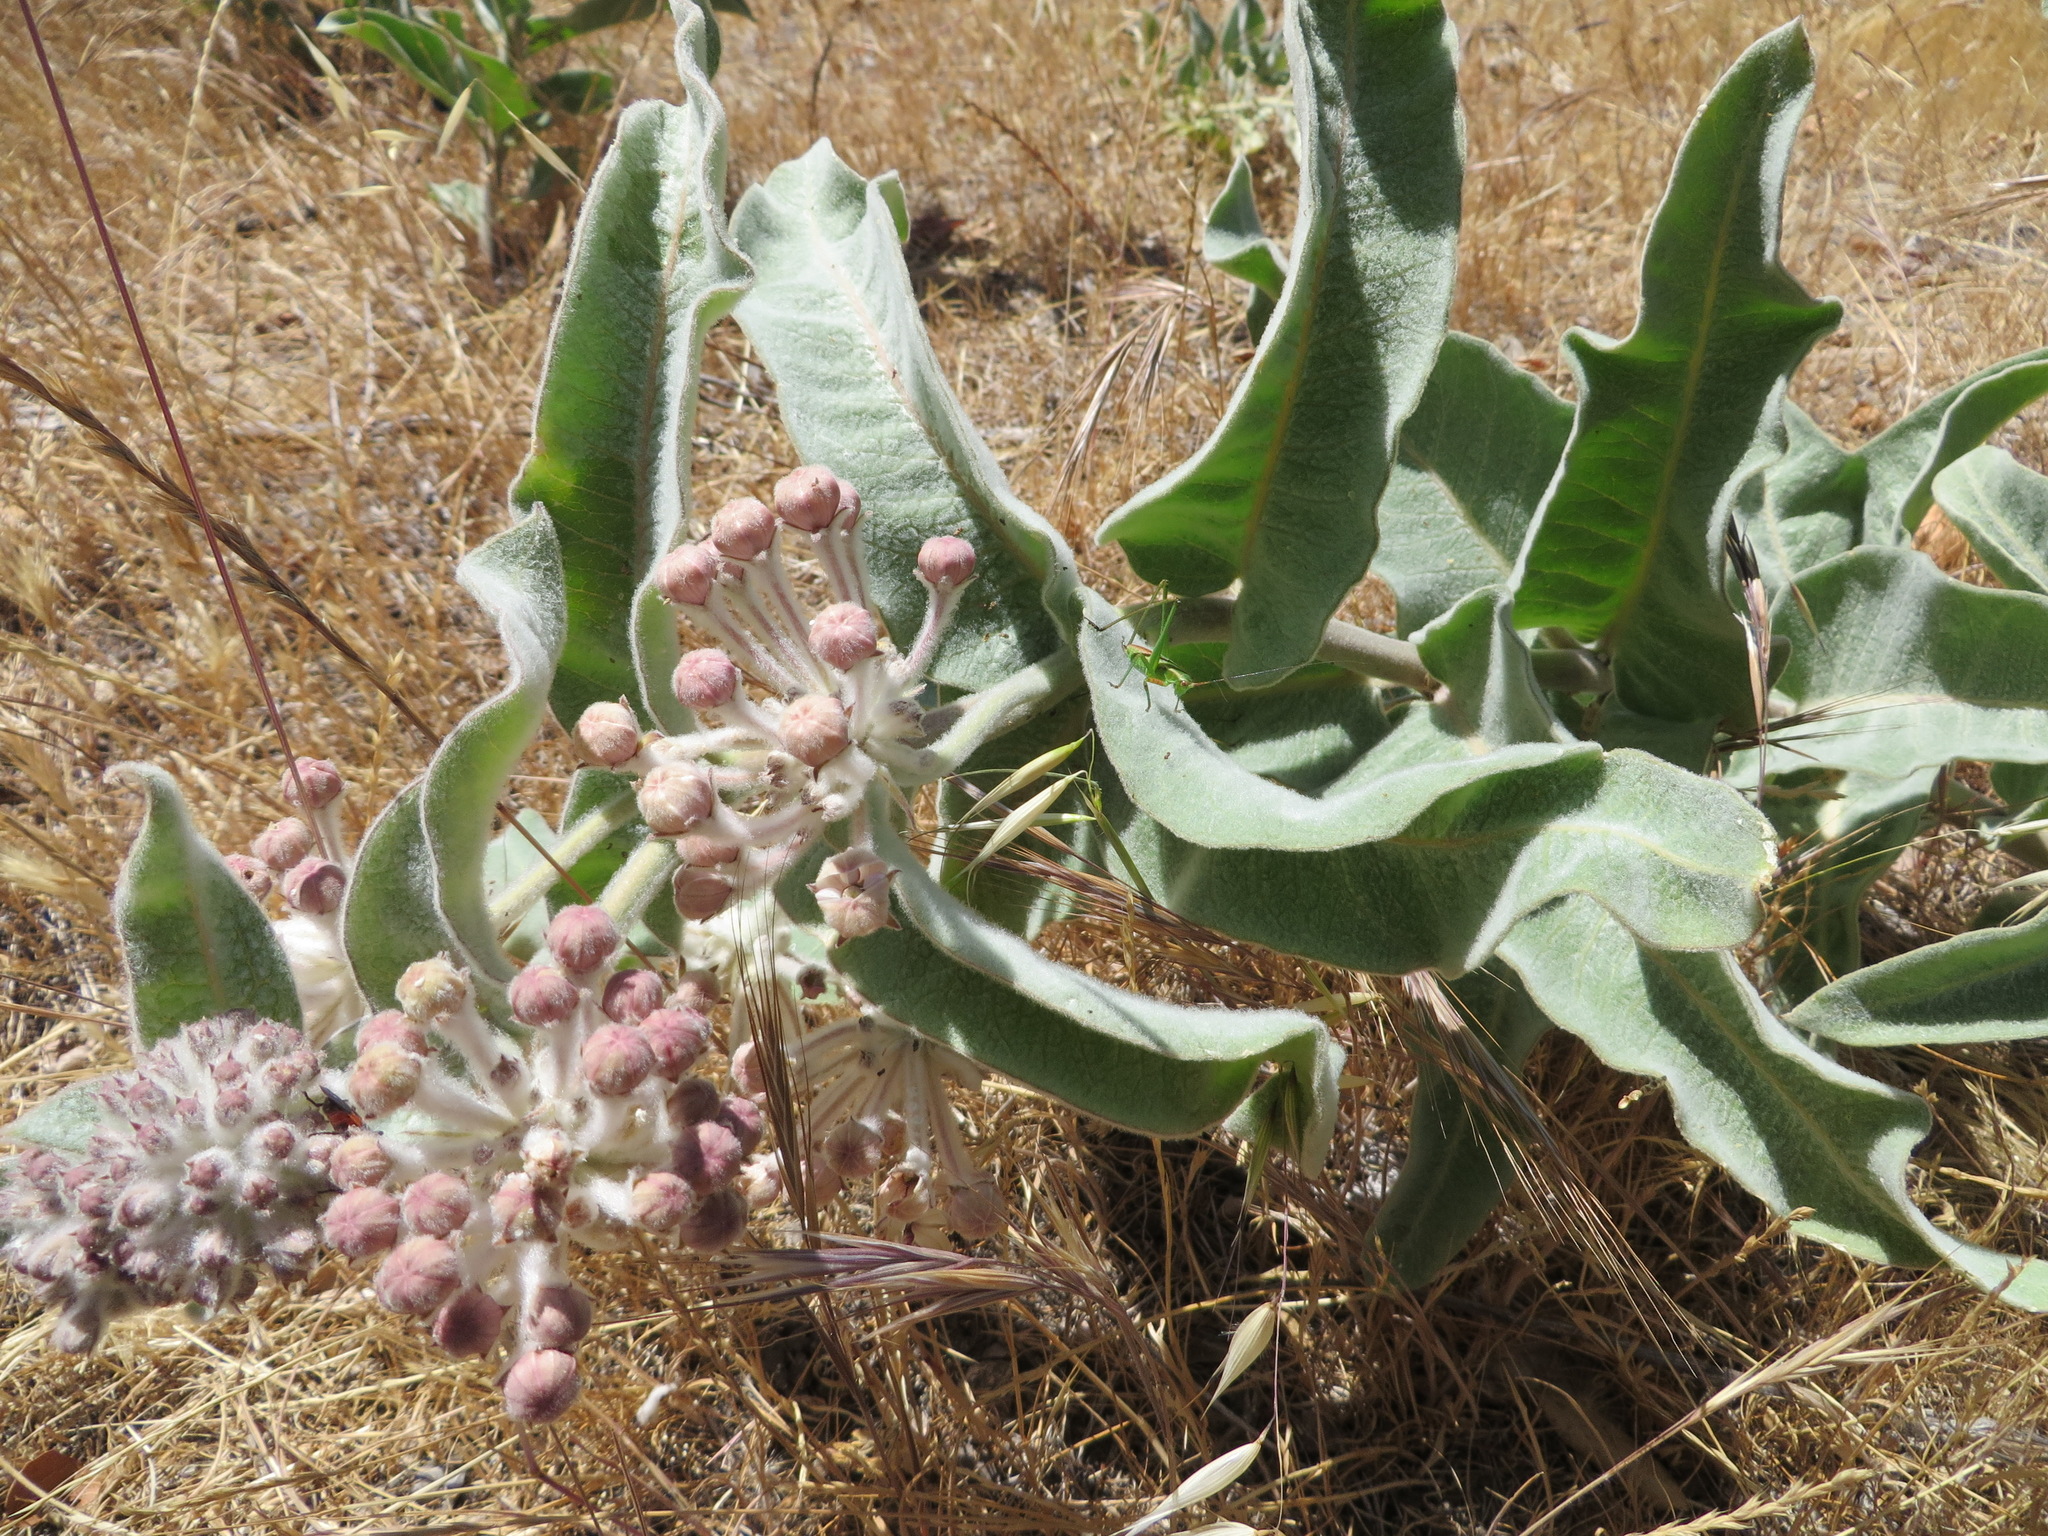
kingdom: Plantae
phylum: Tracheophyta
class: Magnoliopsida
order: Gentianales
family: Apocynaceae
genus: Asclepias
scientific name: Asclepias eriocarpa
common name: Indian milkweed
